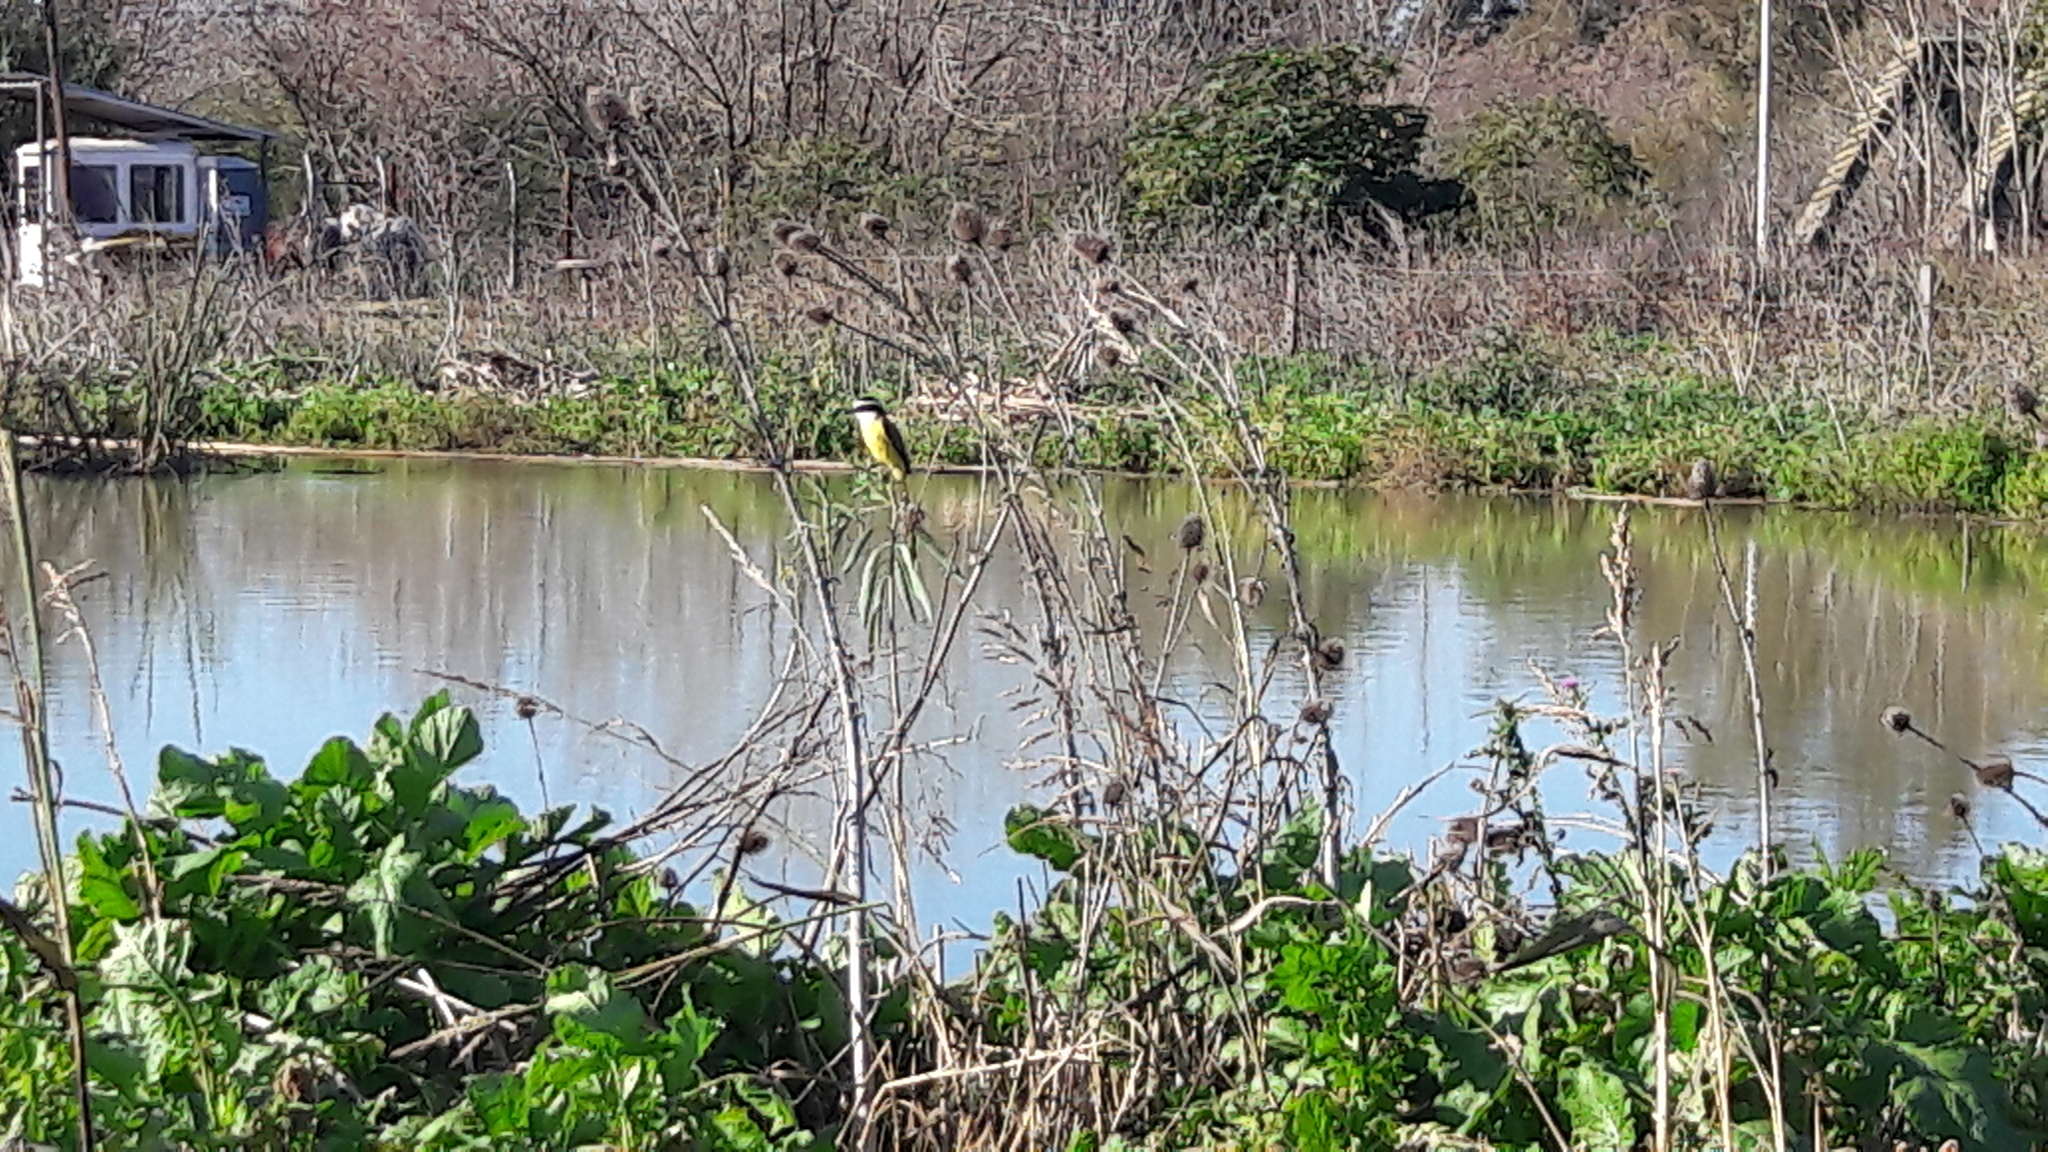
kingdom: Animalia
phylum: Chordata
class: Aves
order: Passeriformes
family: Tyrannidae
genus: Pitangus
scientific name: Pitangus sulphuratus
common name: Great kiskadee
